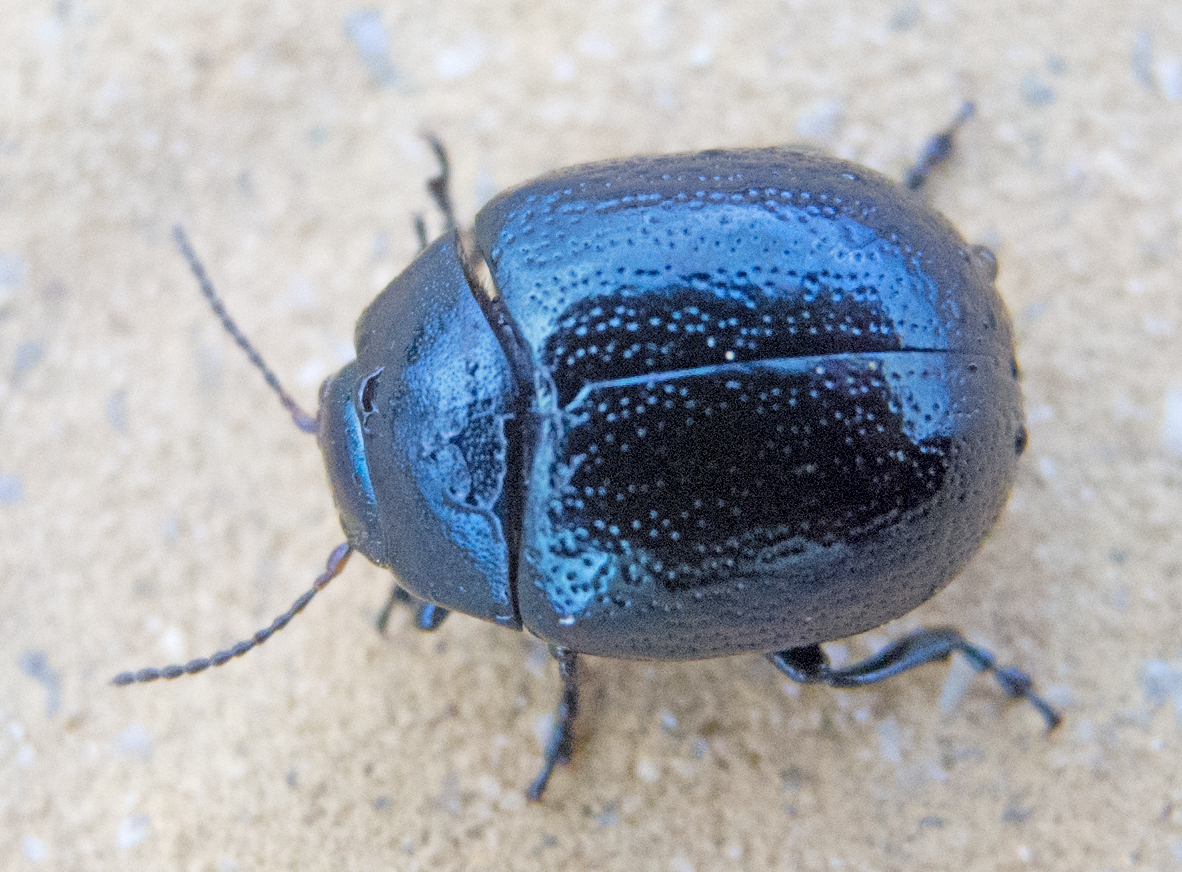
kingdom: Animalia
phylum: Arthropoda
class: Insecta
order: Coleoptera
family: Chrysomelidae
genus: Chrysolina
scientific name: Chrysolina haemoptera
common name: Plantain leaf beetle
